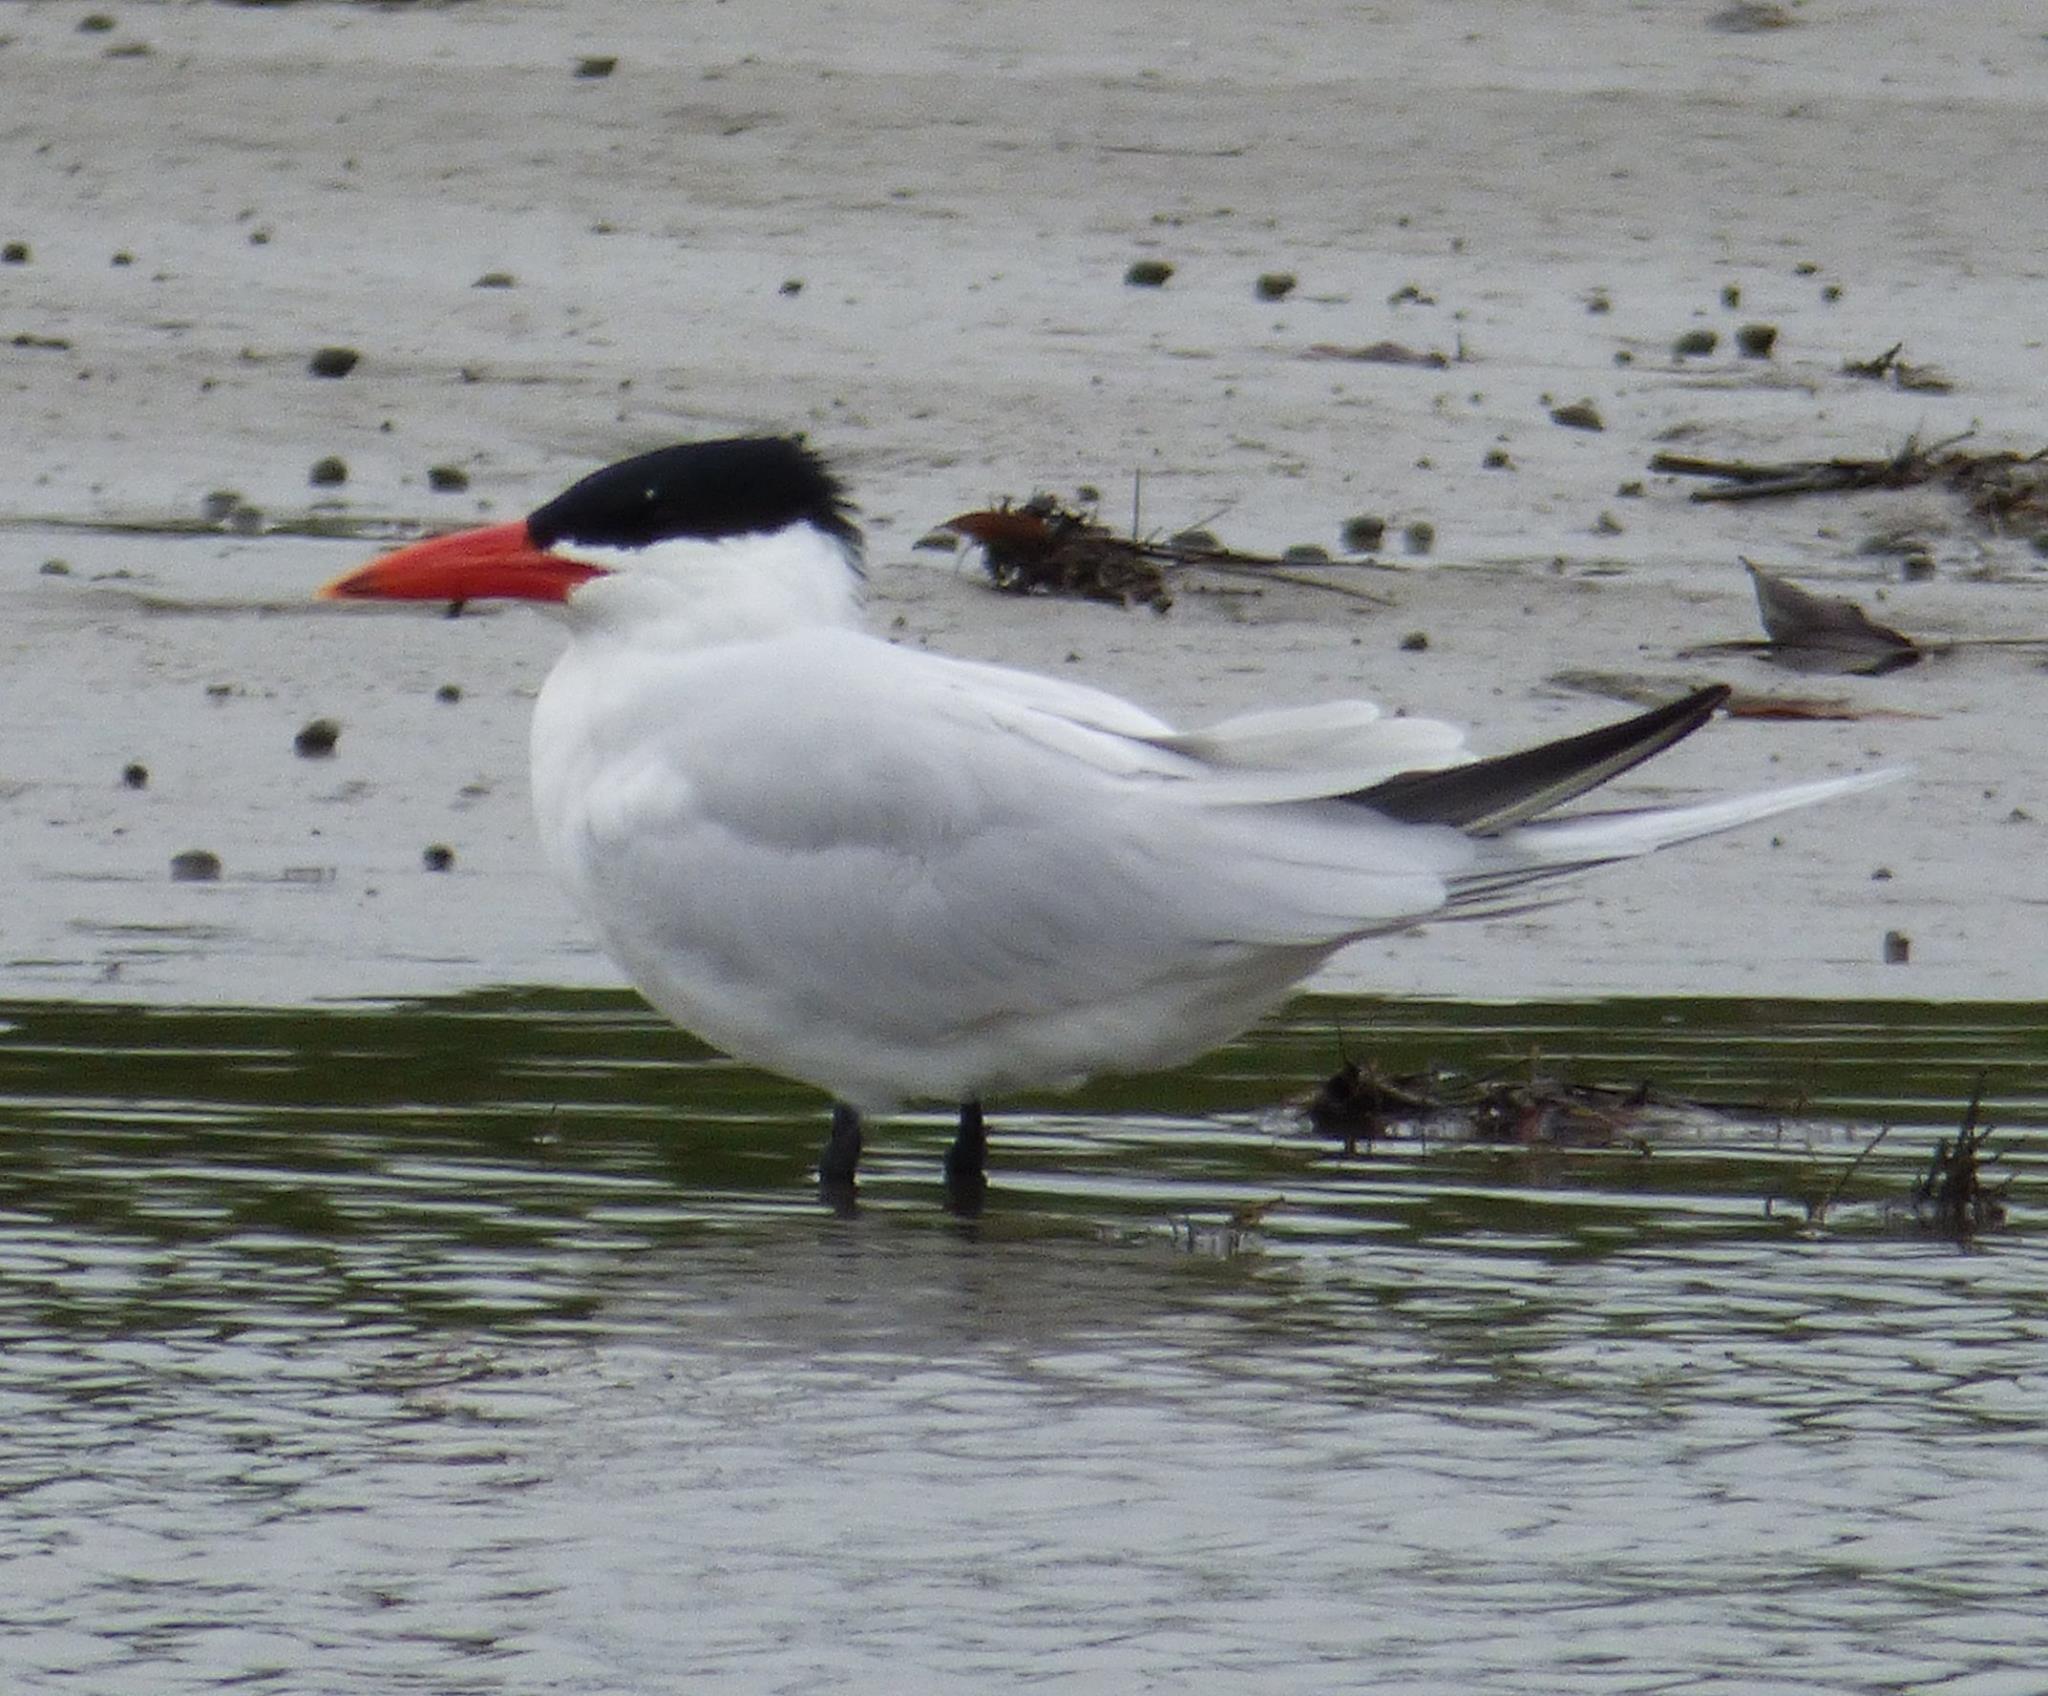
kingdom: Animalia
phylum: Chordata
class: Aves
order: Charadriiformes
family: Laridae
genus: Hydroprogne
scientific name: Hydroprogne caspia
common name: Caspian tern
